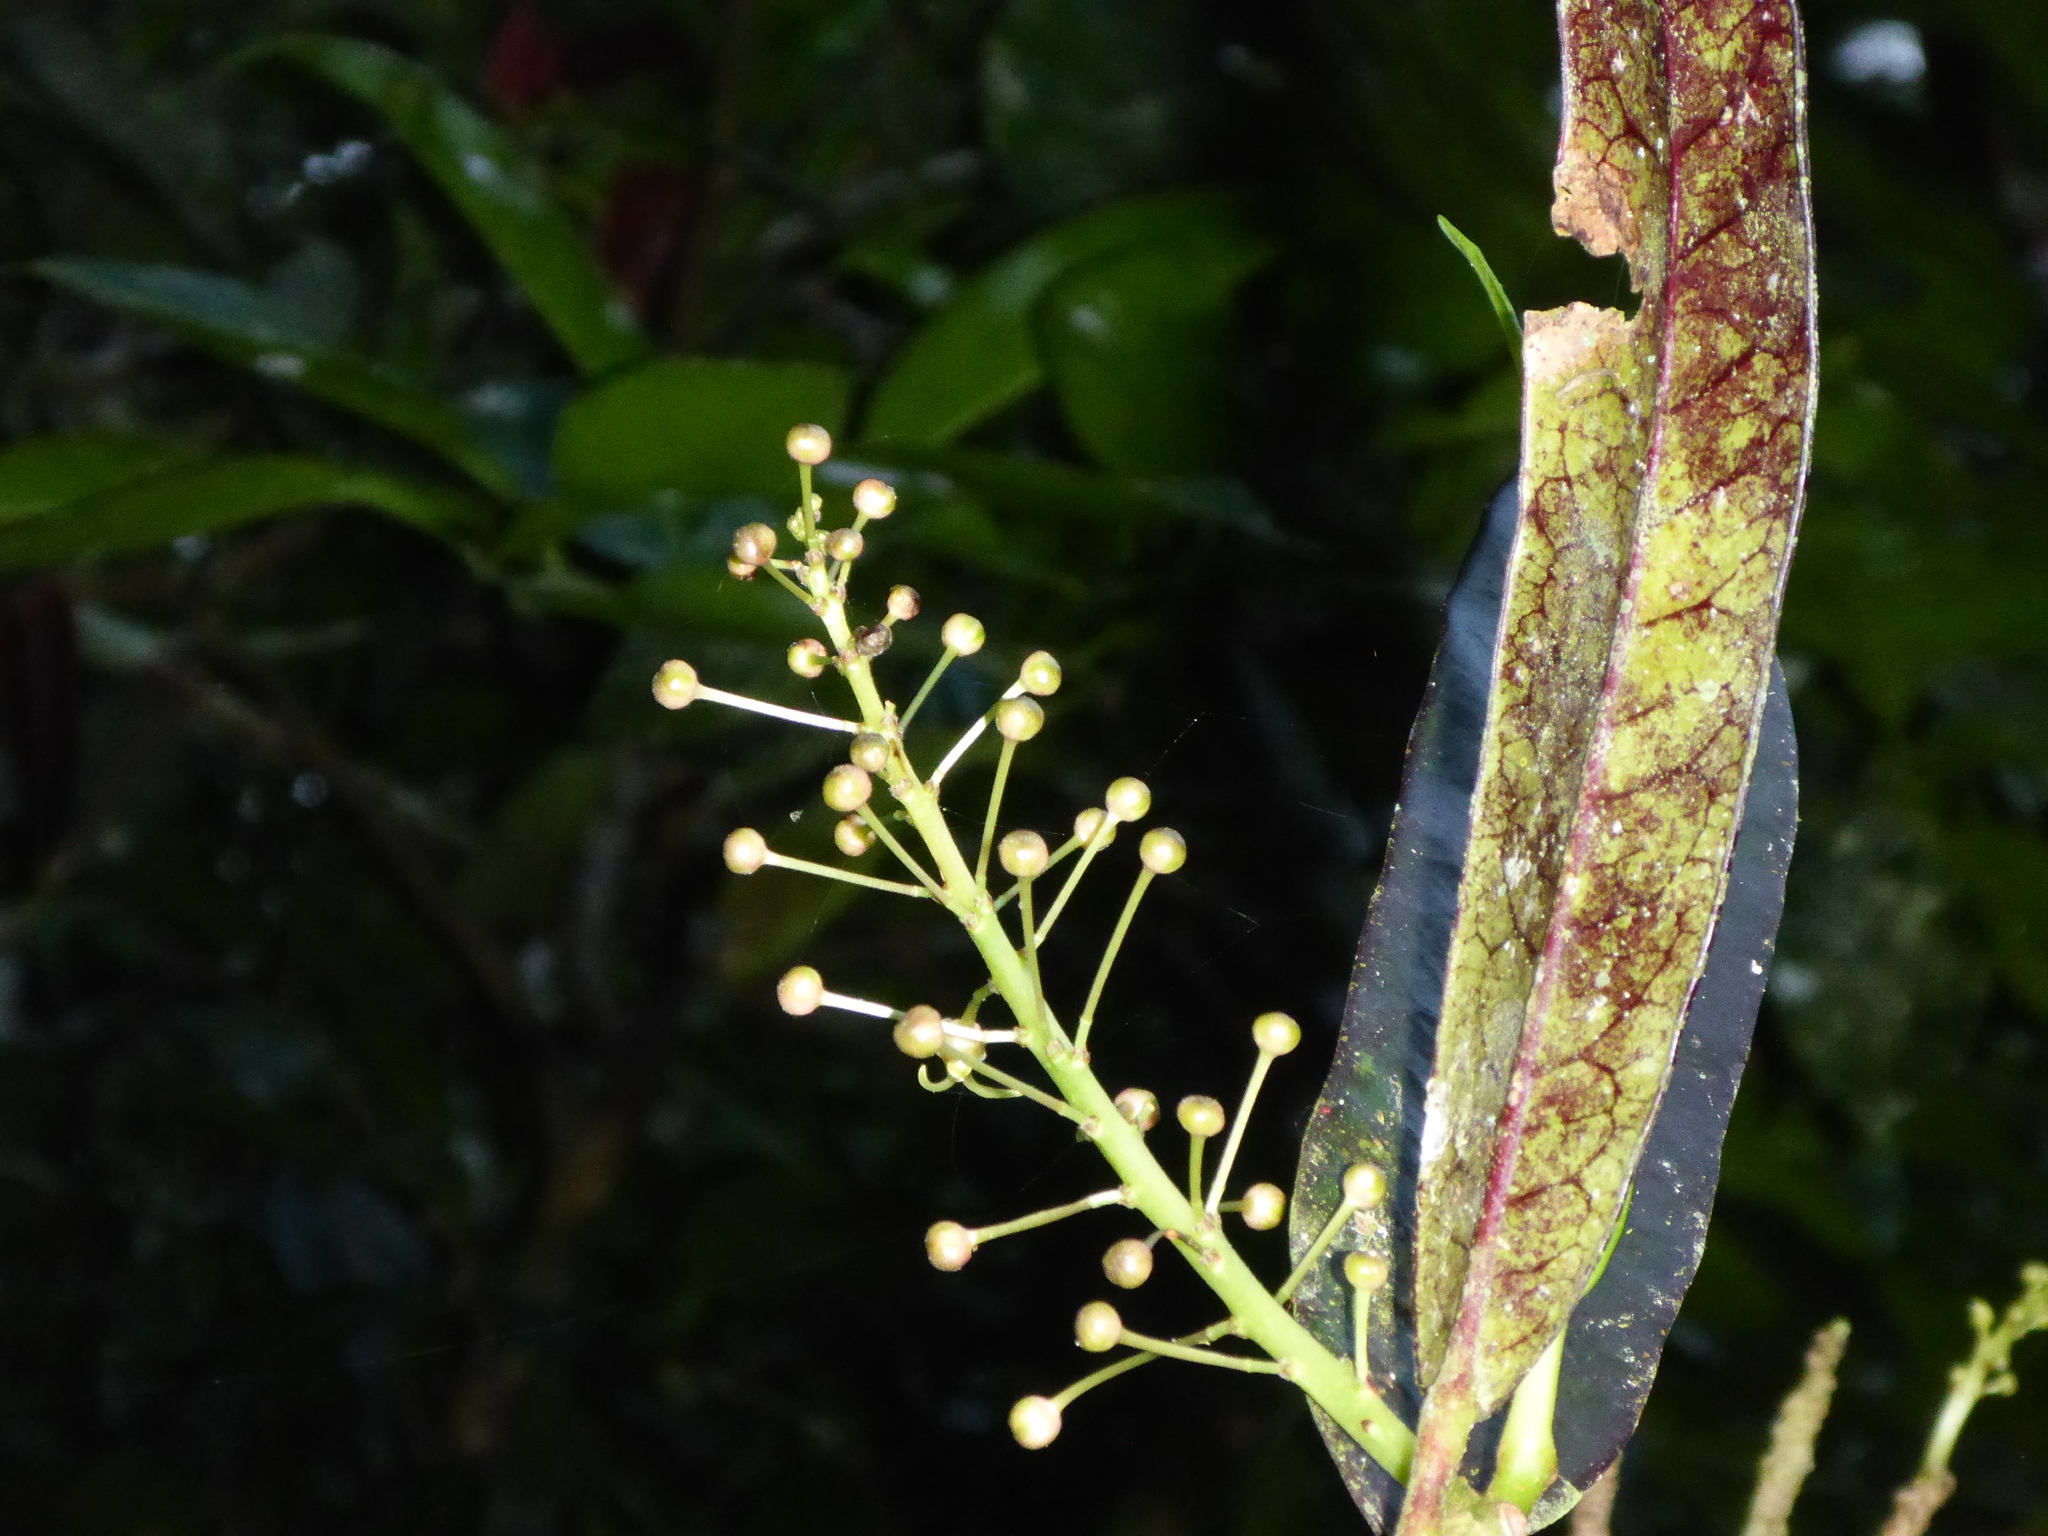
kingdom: Plantae
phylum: Tracheophyta
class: Magnoliopsida
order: Malpighiales
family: Euphorbiaceae
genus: Codiaeum
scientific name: Codiaeum variegatum
